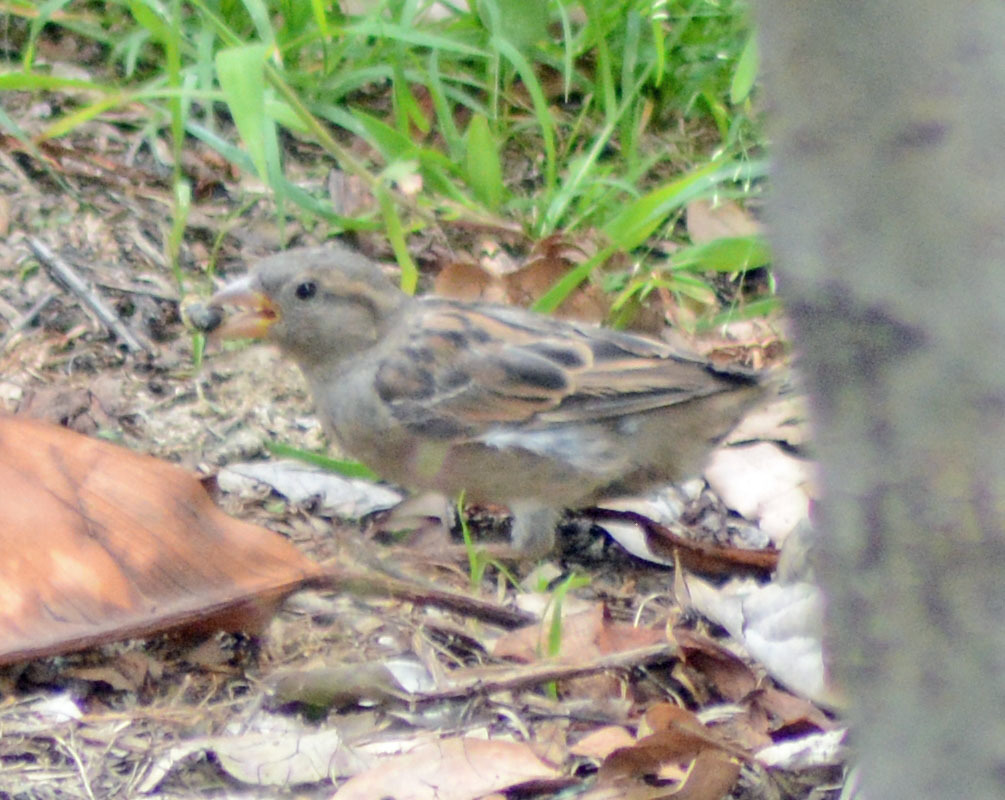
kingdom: Animalia
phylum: Chordata
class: Aves
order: Passeriformes
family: Passeridae
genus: Passer
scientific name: Passer domesticus
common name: House sparrow
